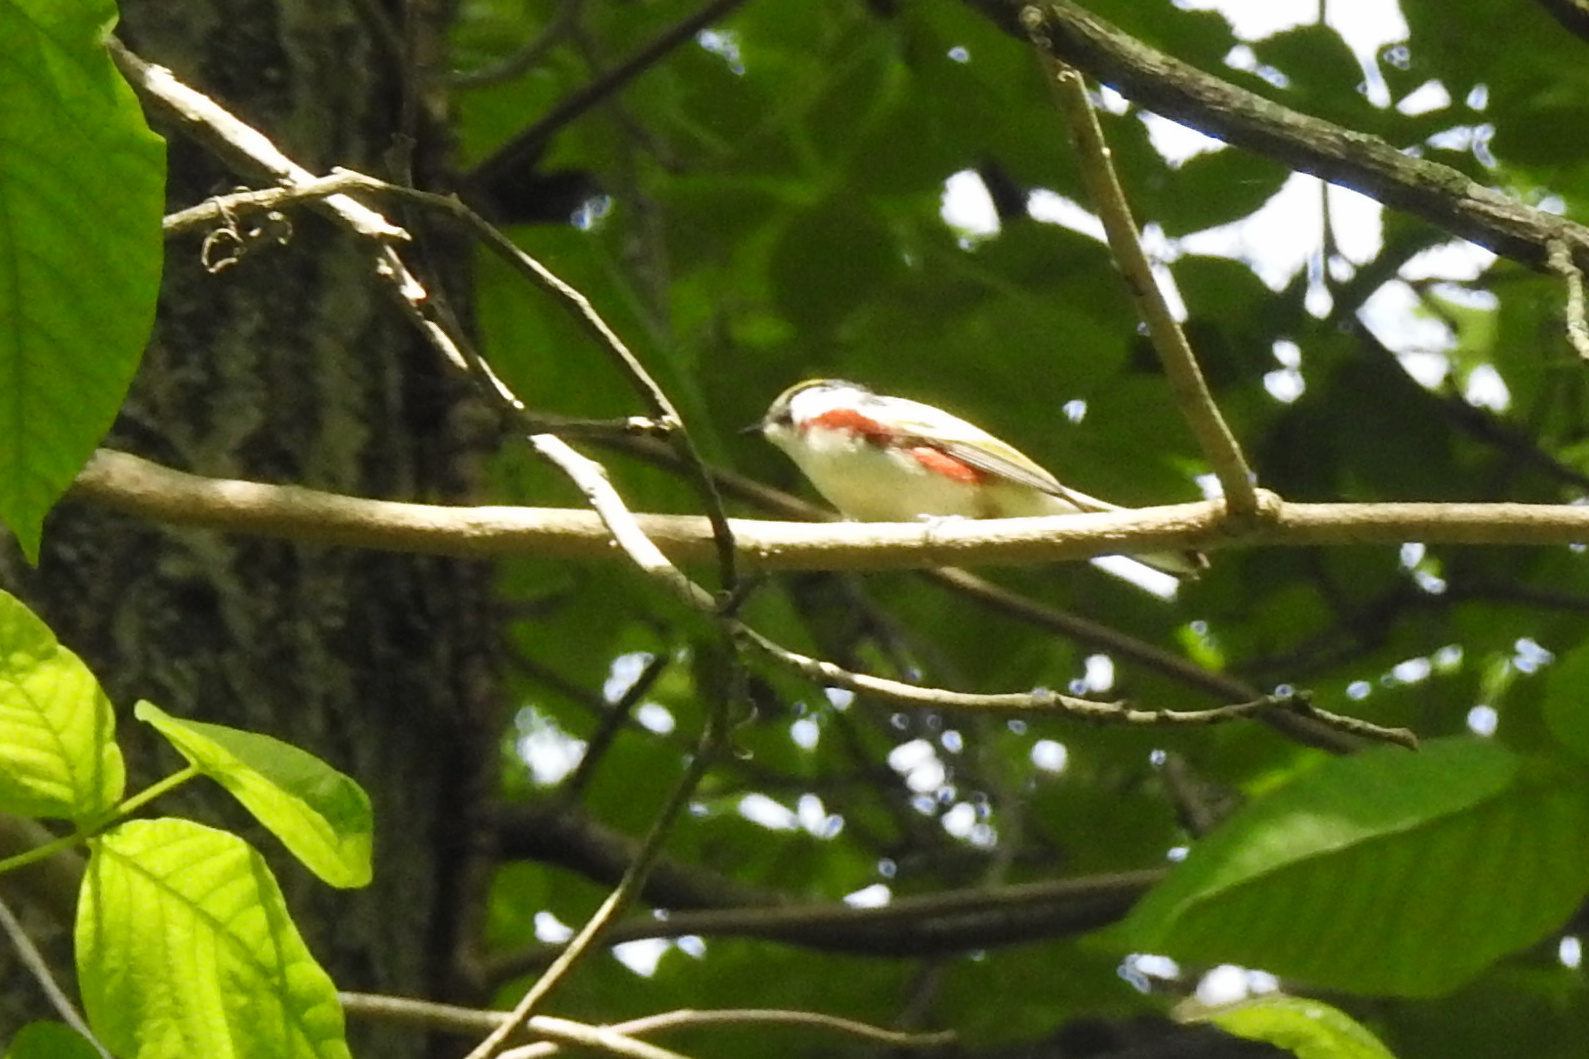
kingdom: Animalia
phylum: Chordata
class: Aves
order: Passeriformes
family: Parulidae
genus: Setophaga
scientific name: Setophaga pensylvanica
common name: Chestnut-sided warbler
